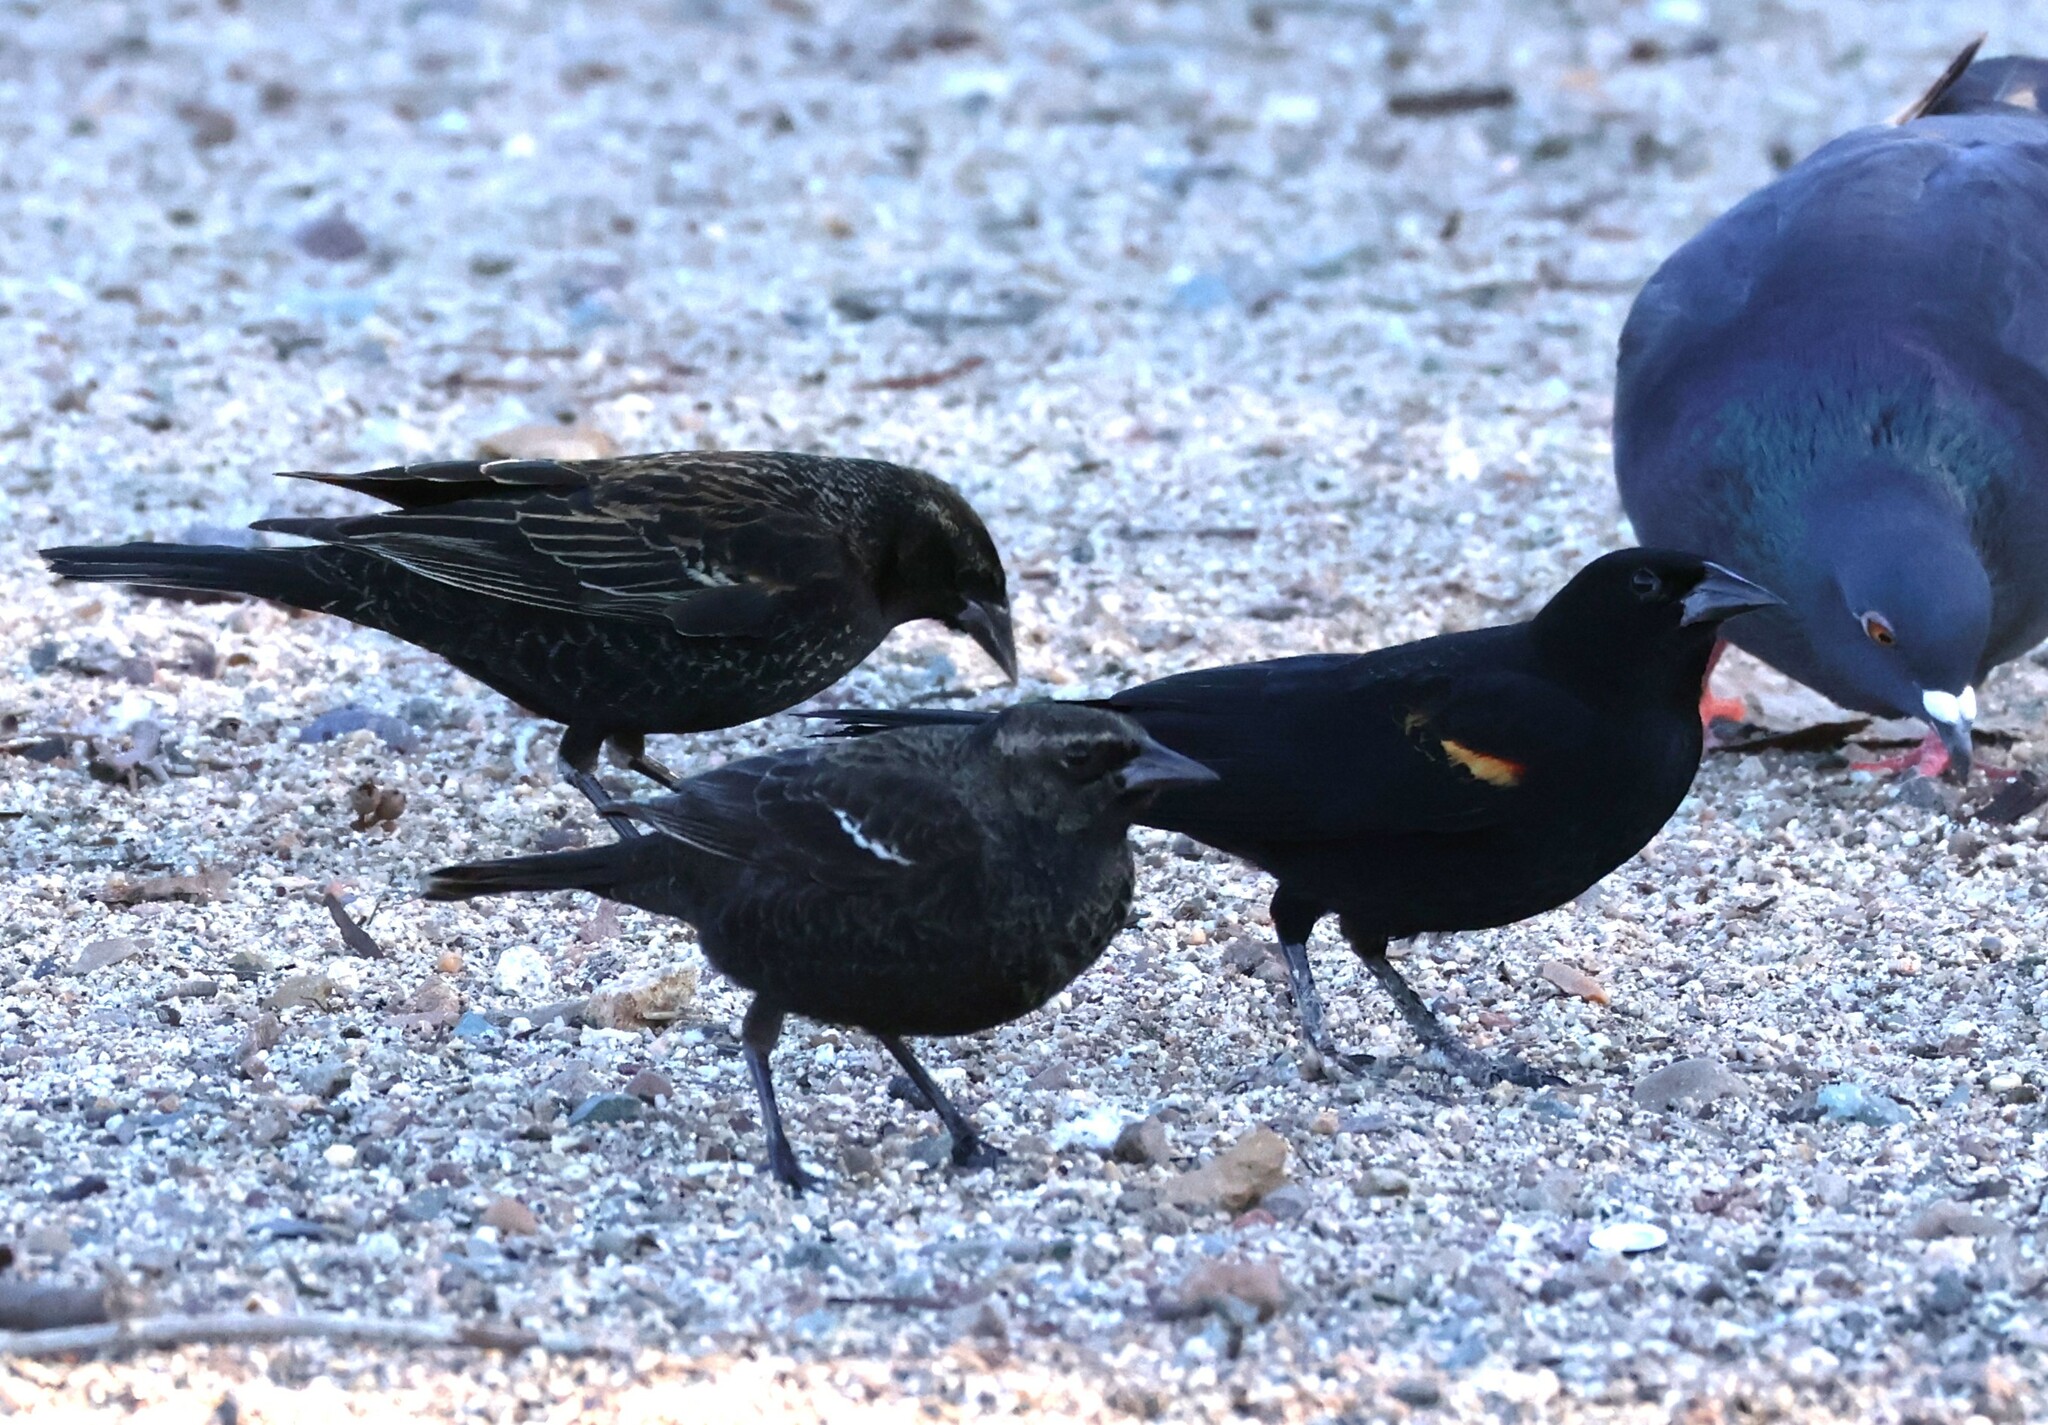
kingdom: Animalia
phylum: Chordata
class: Aves
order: Passeriformes
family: Icteridae
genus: Agelaius
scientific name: Agelaius phoeniceus
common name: Red-winged blackbird
